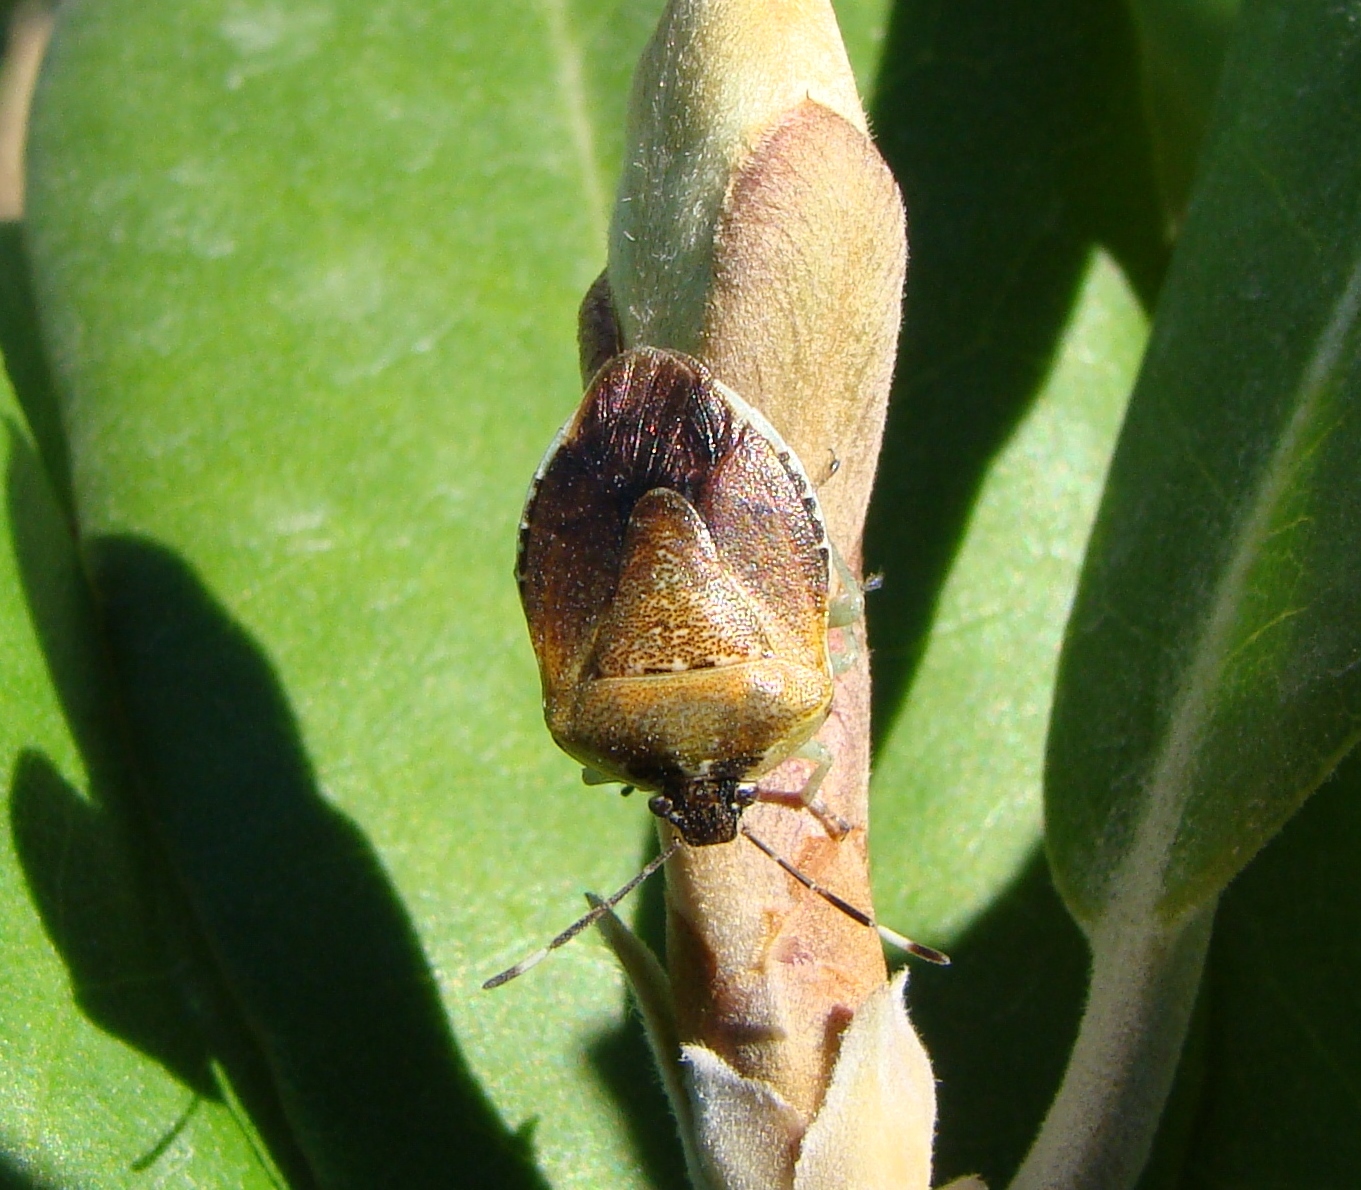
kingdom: Animalia
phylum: Arthropoda
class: Insecta
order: Hemiptera
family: Pentatomidae
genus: Monteithiella
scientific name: Monteithiella
